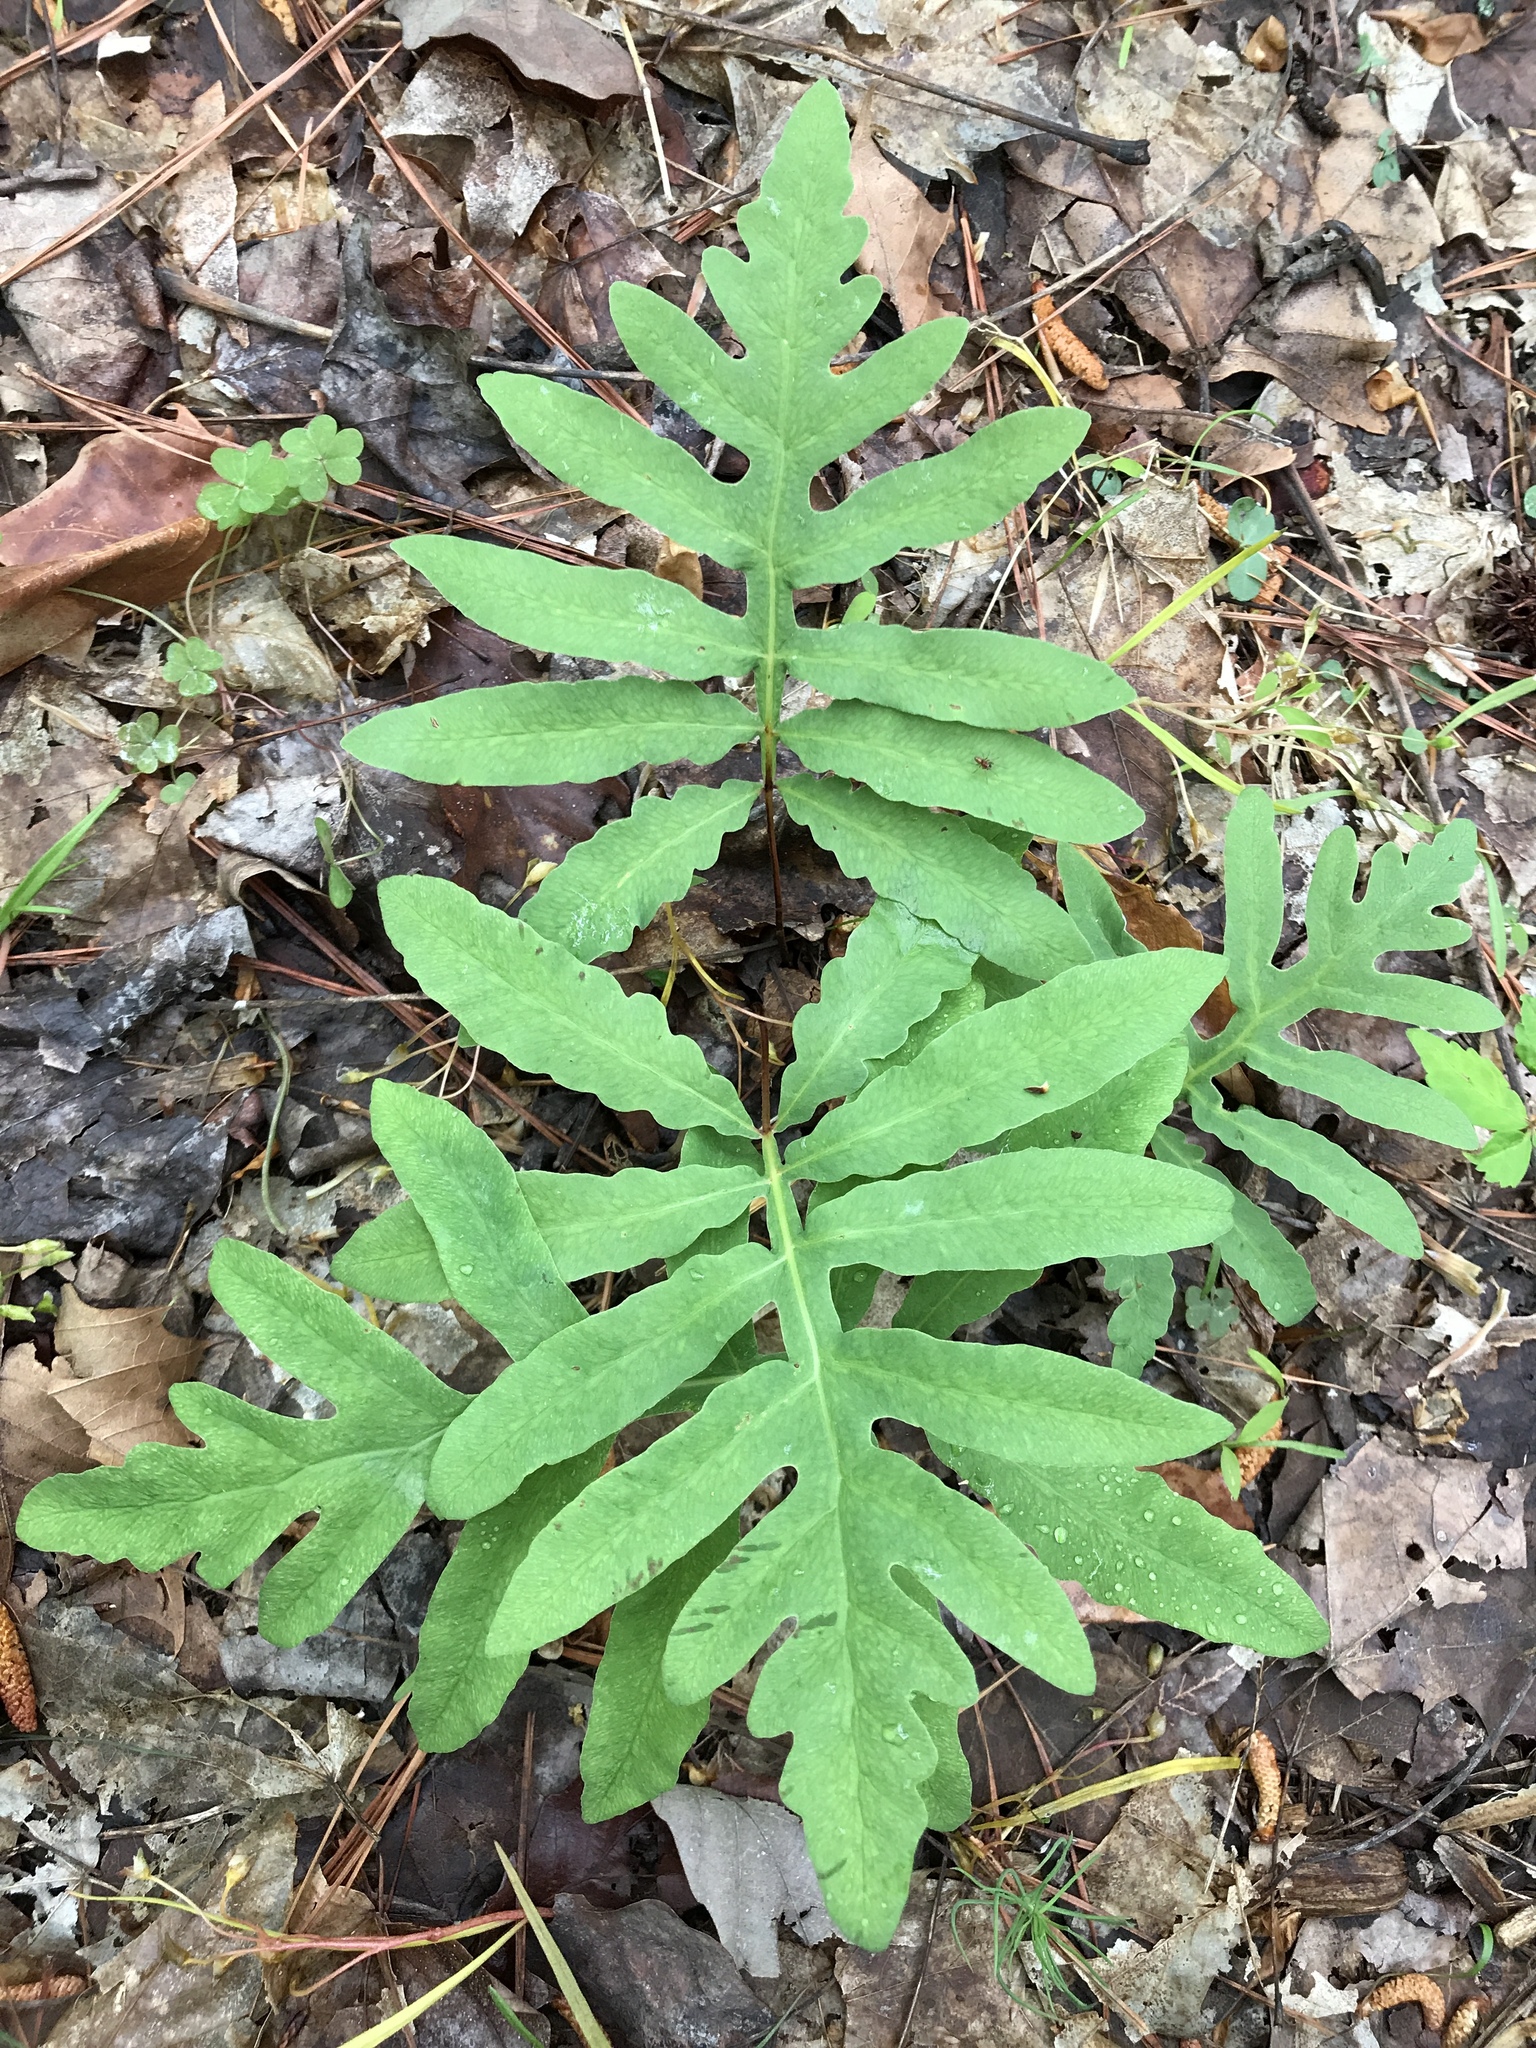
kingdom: Plantae
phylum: Tracheophyta
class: Polypodiopsida
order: Polypodiales
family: Onocleaceae
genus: Onoclea
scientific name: Onoclea sensibilis
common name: Sensitive fern
